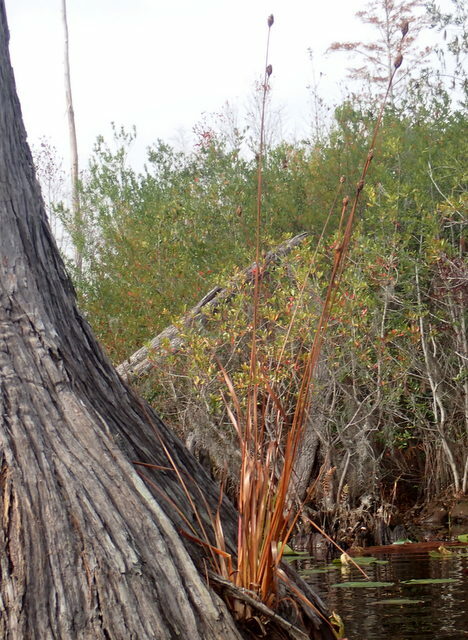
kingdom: Plantae
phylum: Tracheophyta
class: Liliopsida
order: Poales
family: Xyridaceae
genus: Xyris
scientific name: Xyris fimbriata
